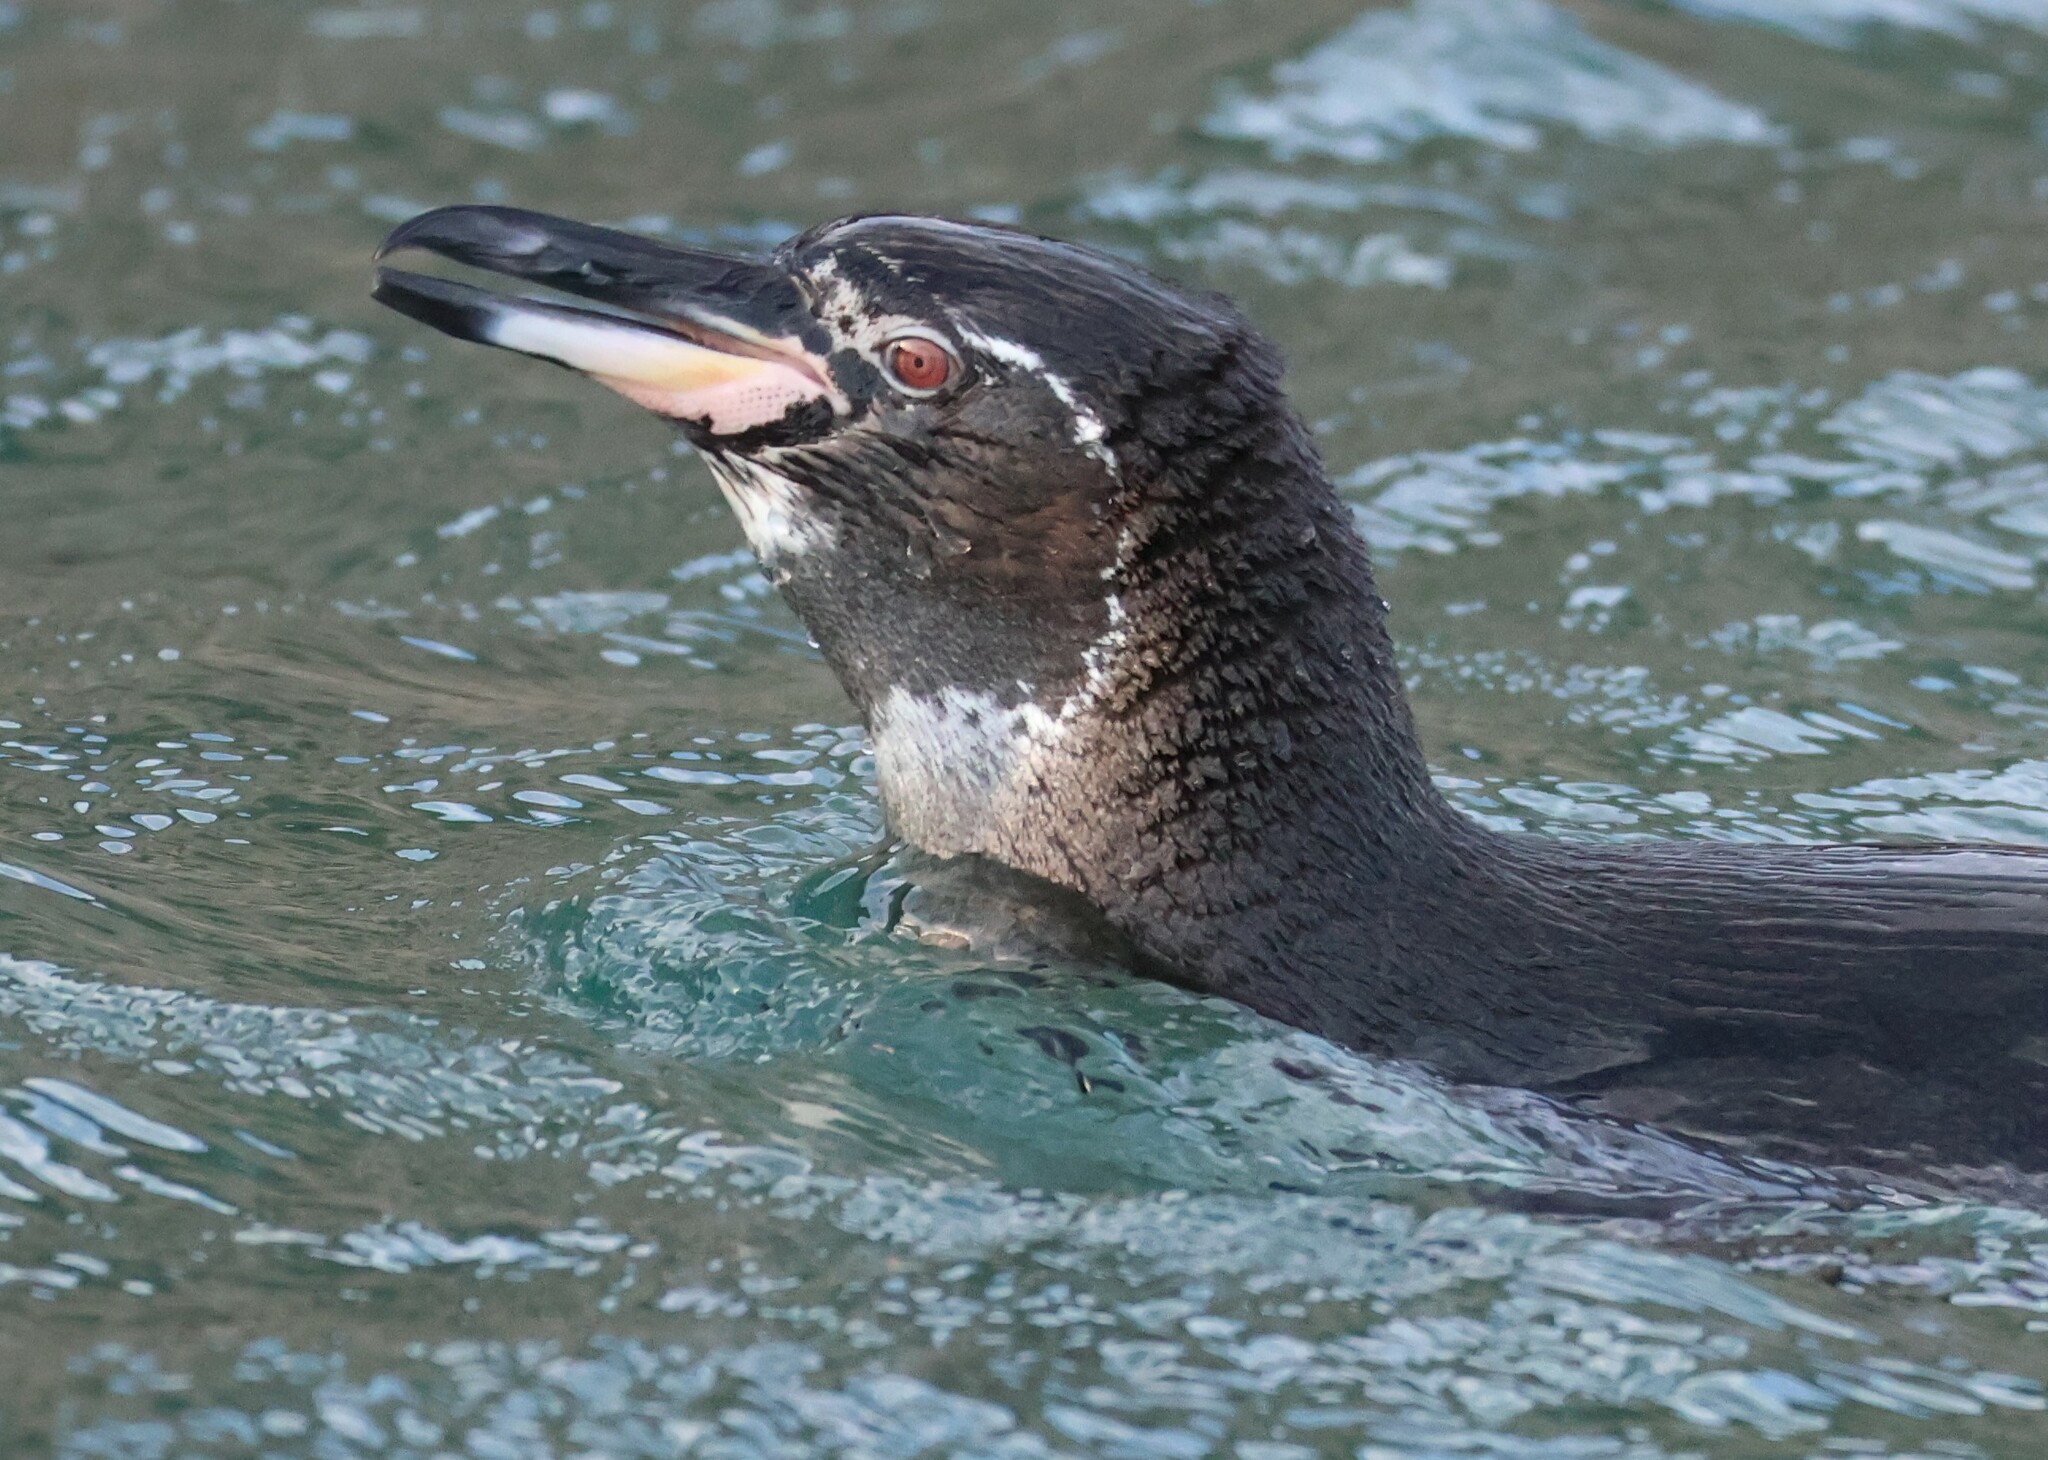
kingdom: Animalia
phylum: Chordata
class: Aves
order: Sphenisciformes
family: Spheniscidae
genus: Spheniscus
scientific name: Spheniscus mendiculus
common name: Galapagos penguin
